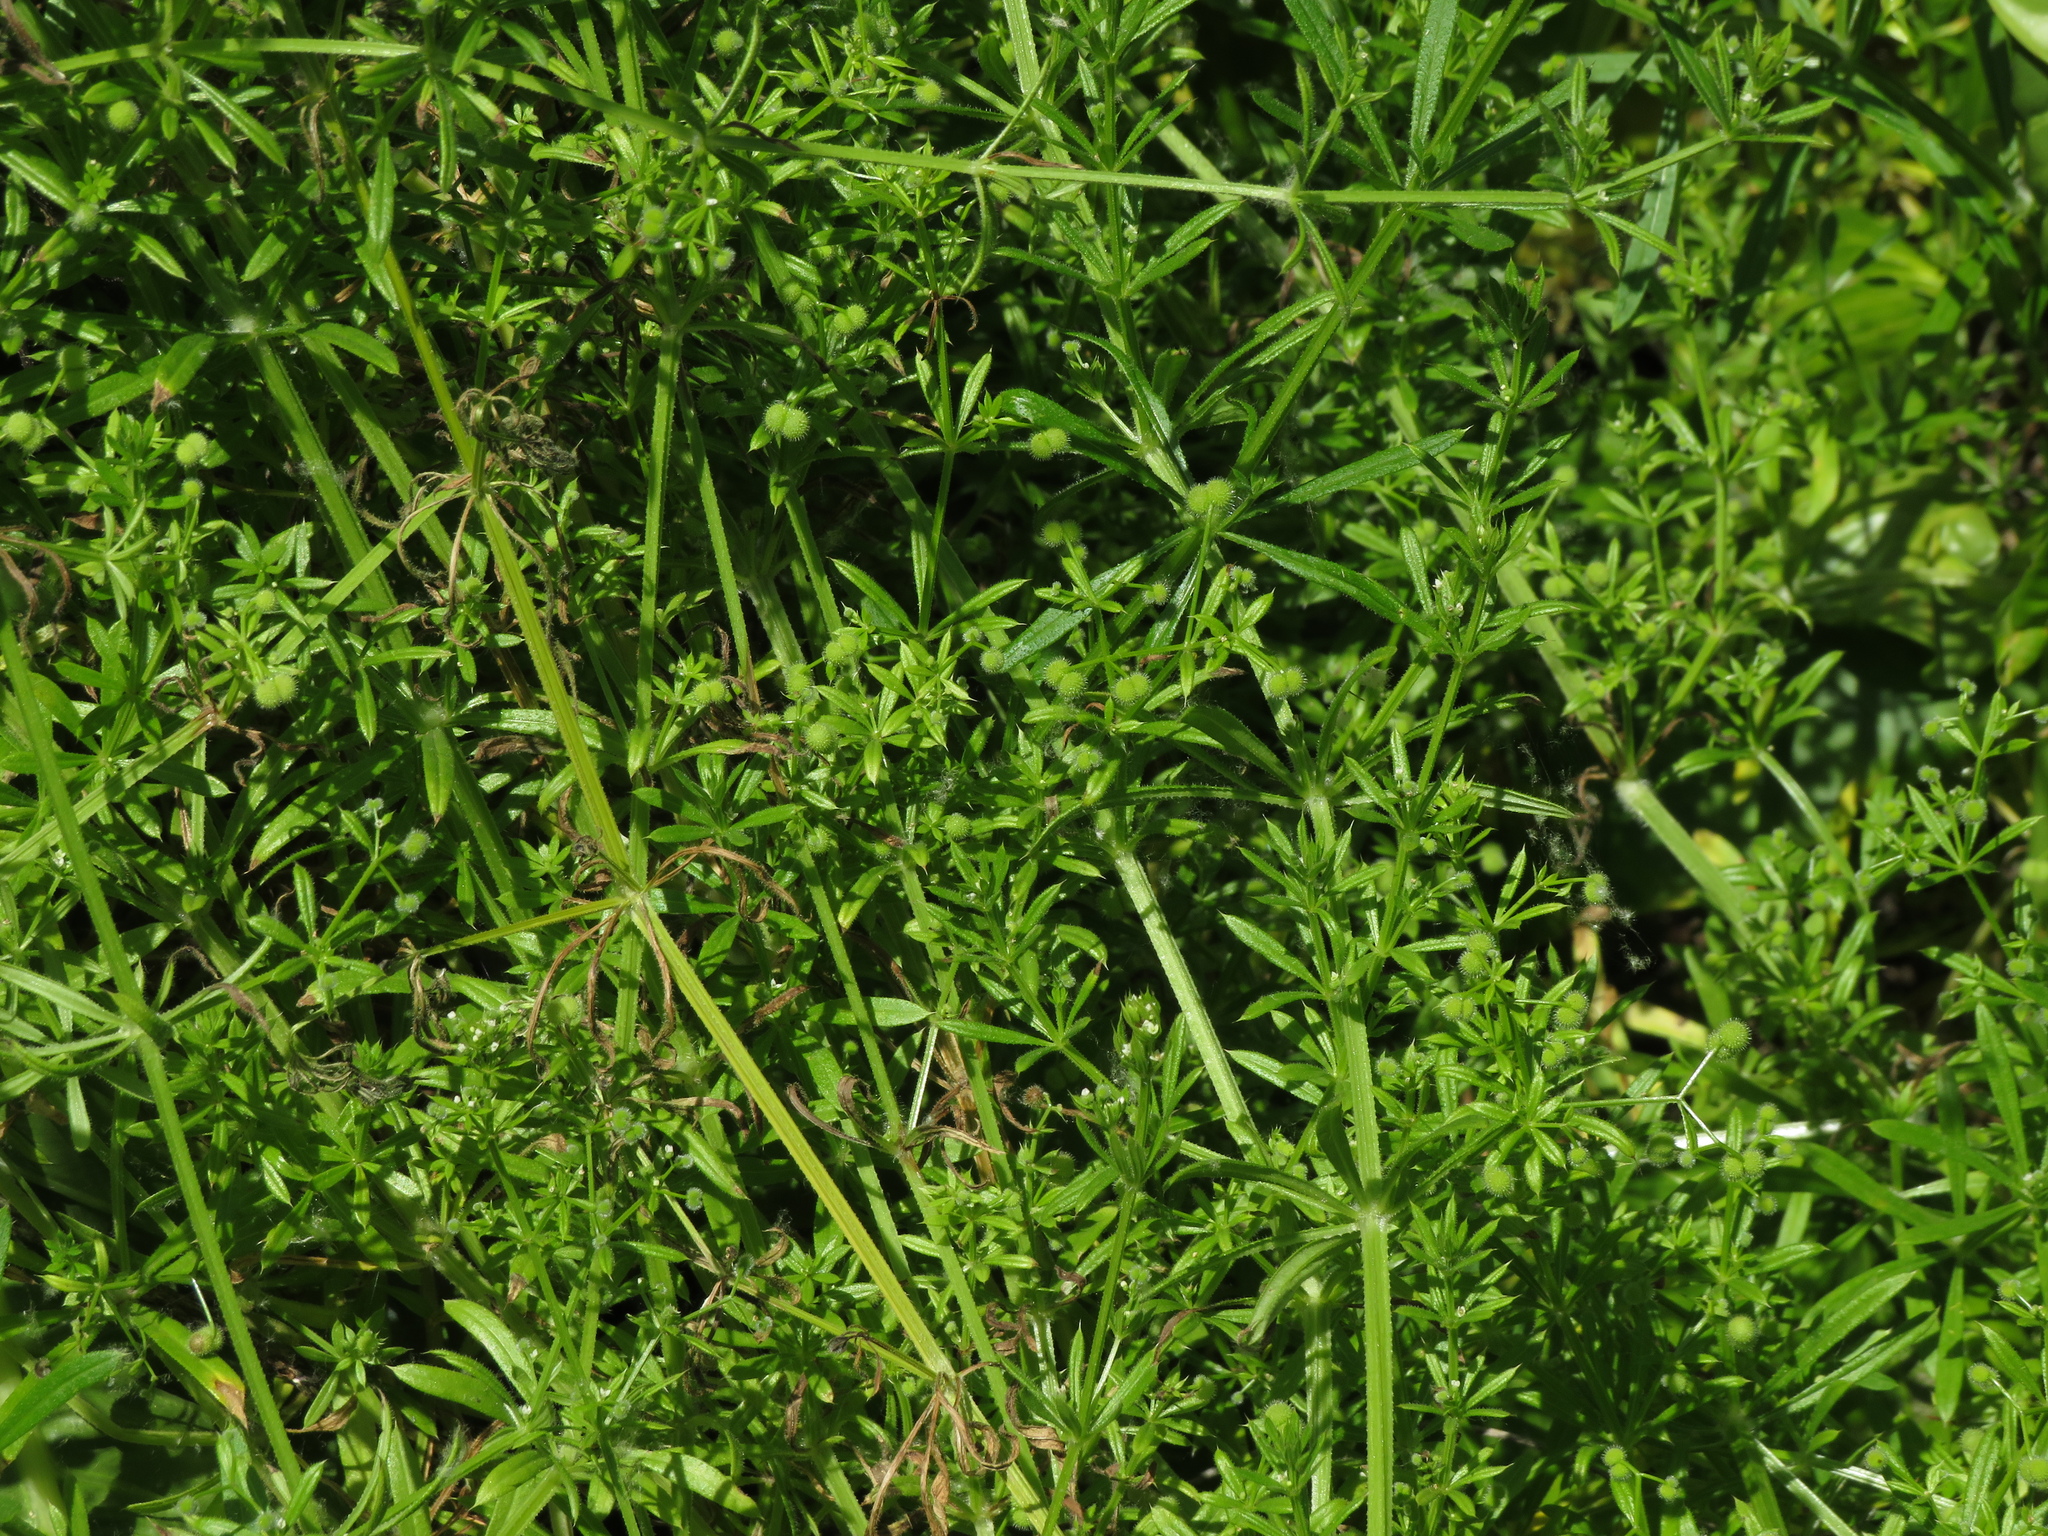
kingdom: Plantae
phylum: Tracheophyta
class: Magnoliopsida
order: Gentianales
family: Rubiaceae
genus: Galium
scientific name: Galium aparine
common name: Cleavers
